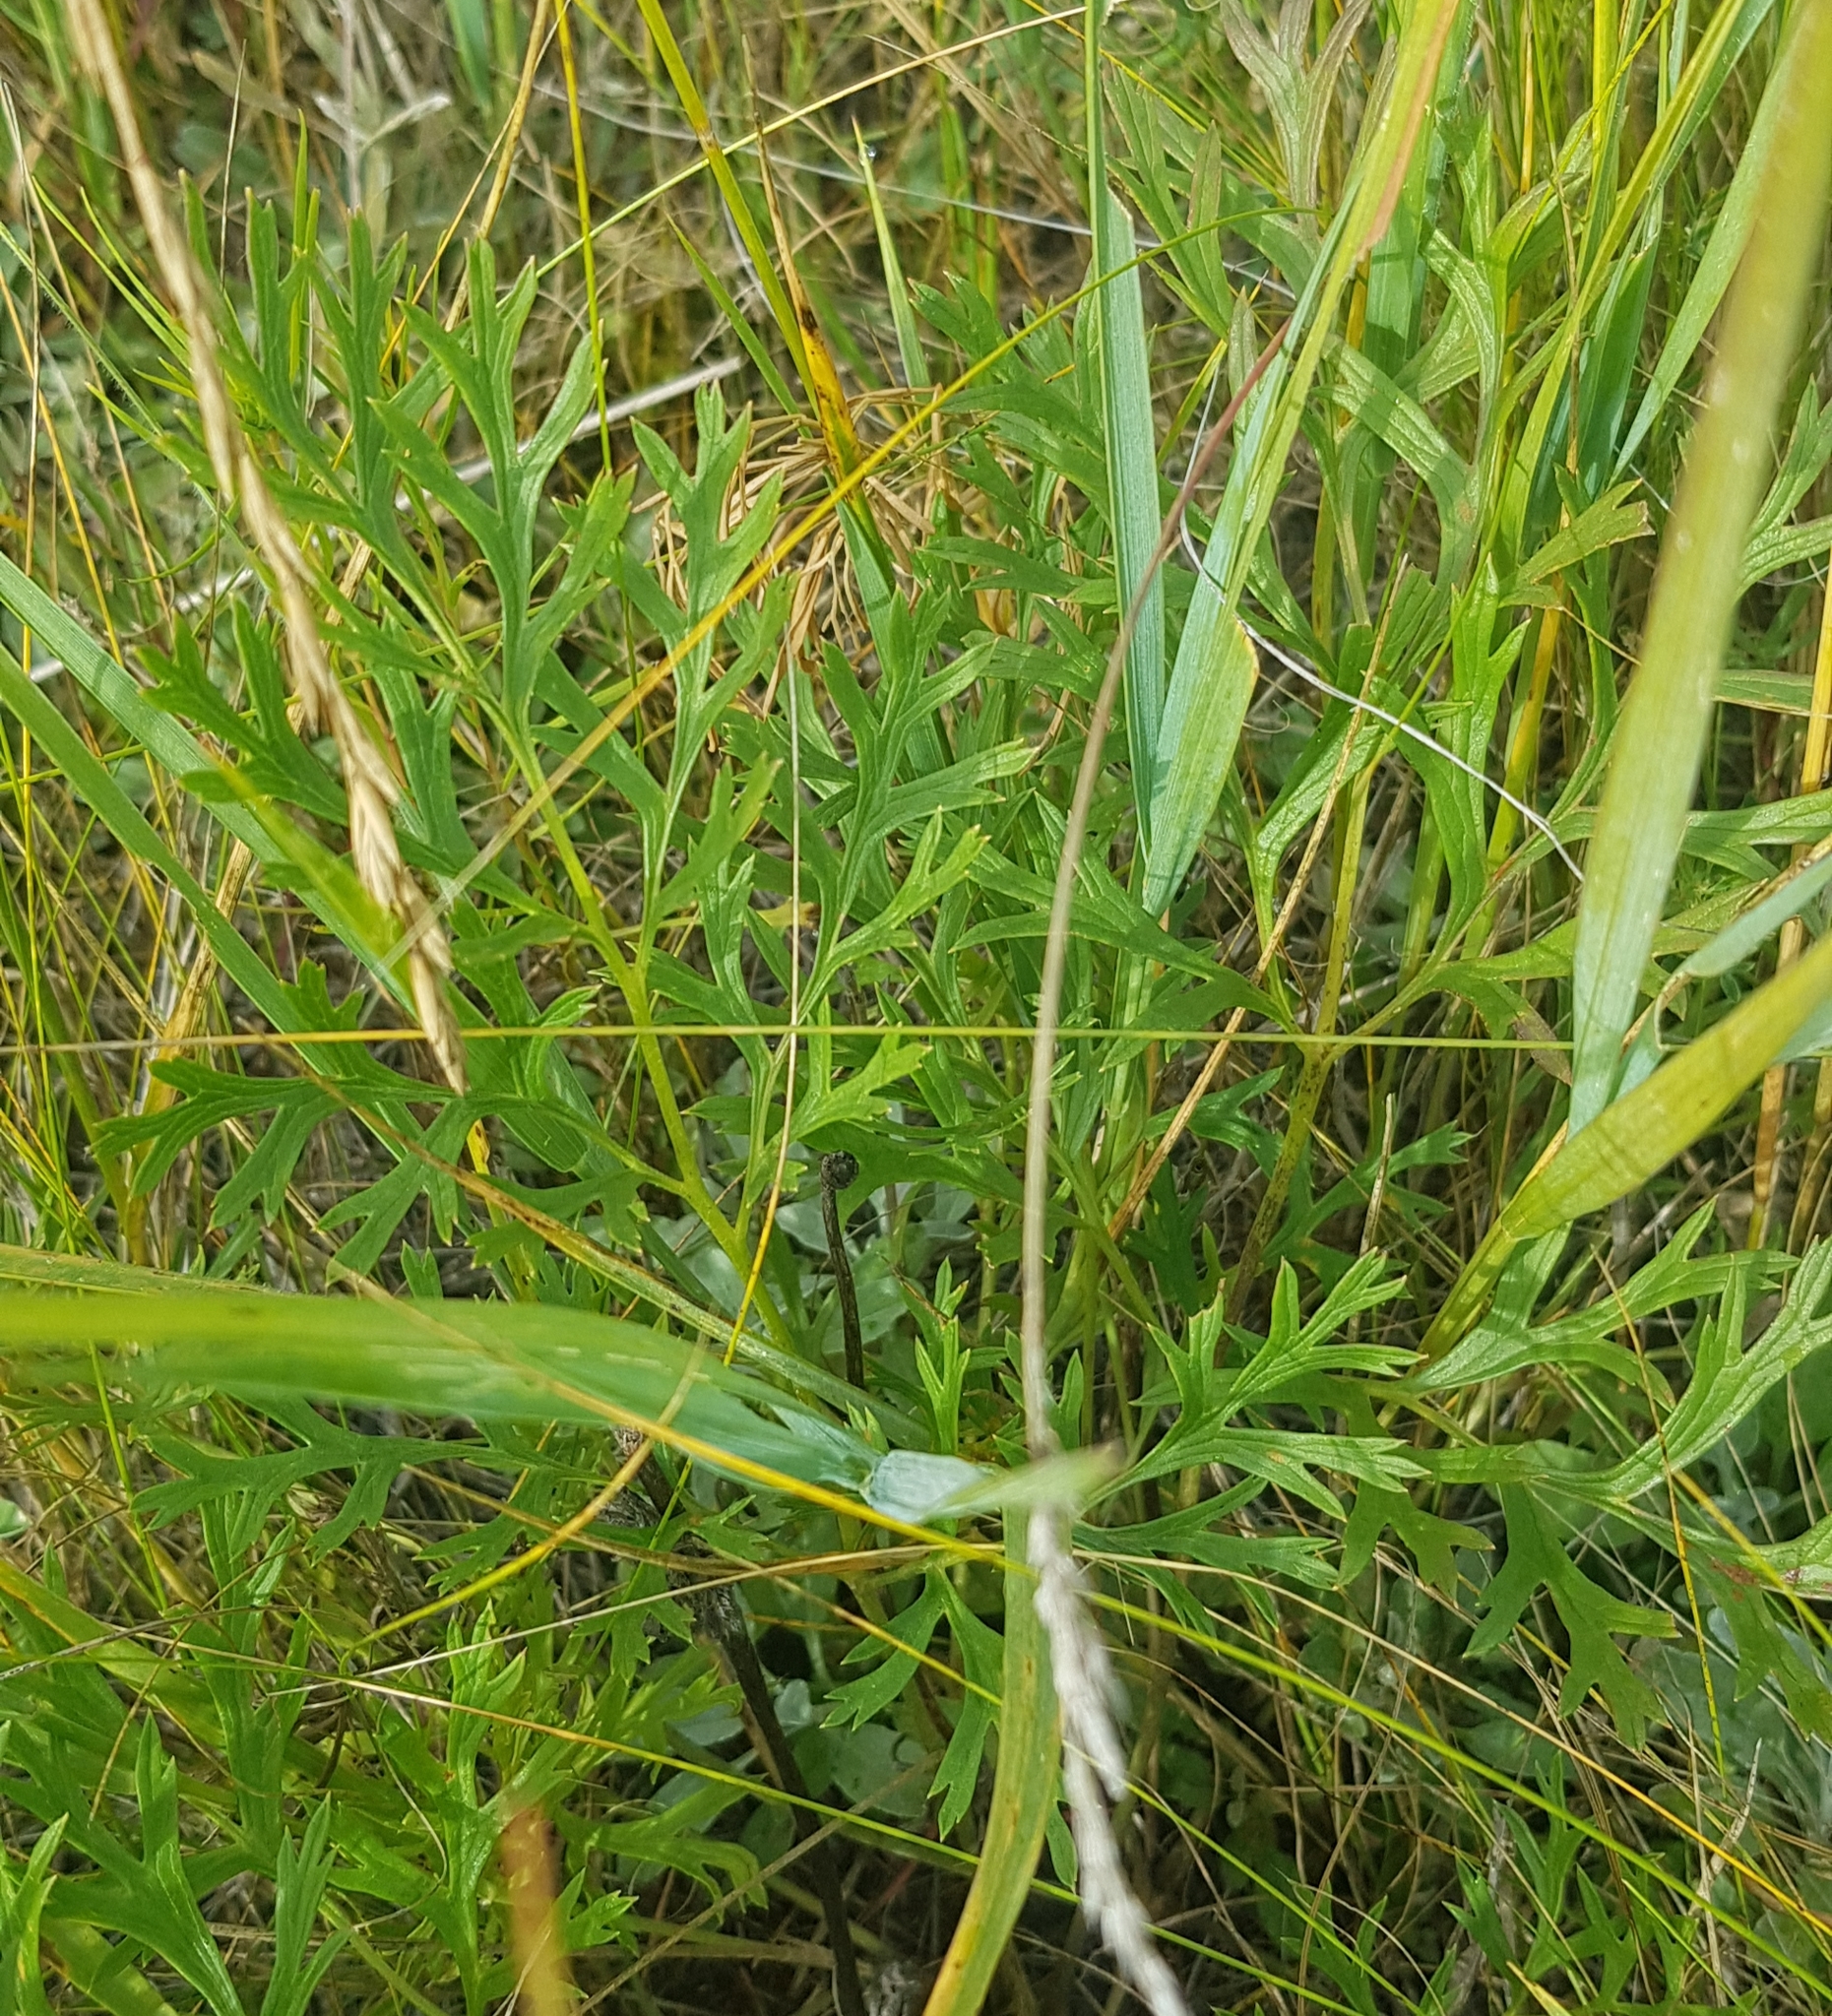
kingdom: Plantae
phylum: Tracheophyta
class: Liliopsida
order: Poales
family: Poaceae
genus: Leymus
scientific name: Leymus chinensis
